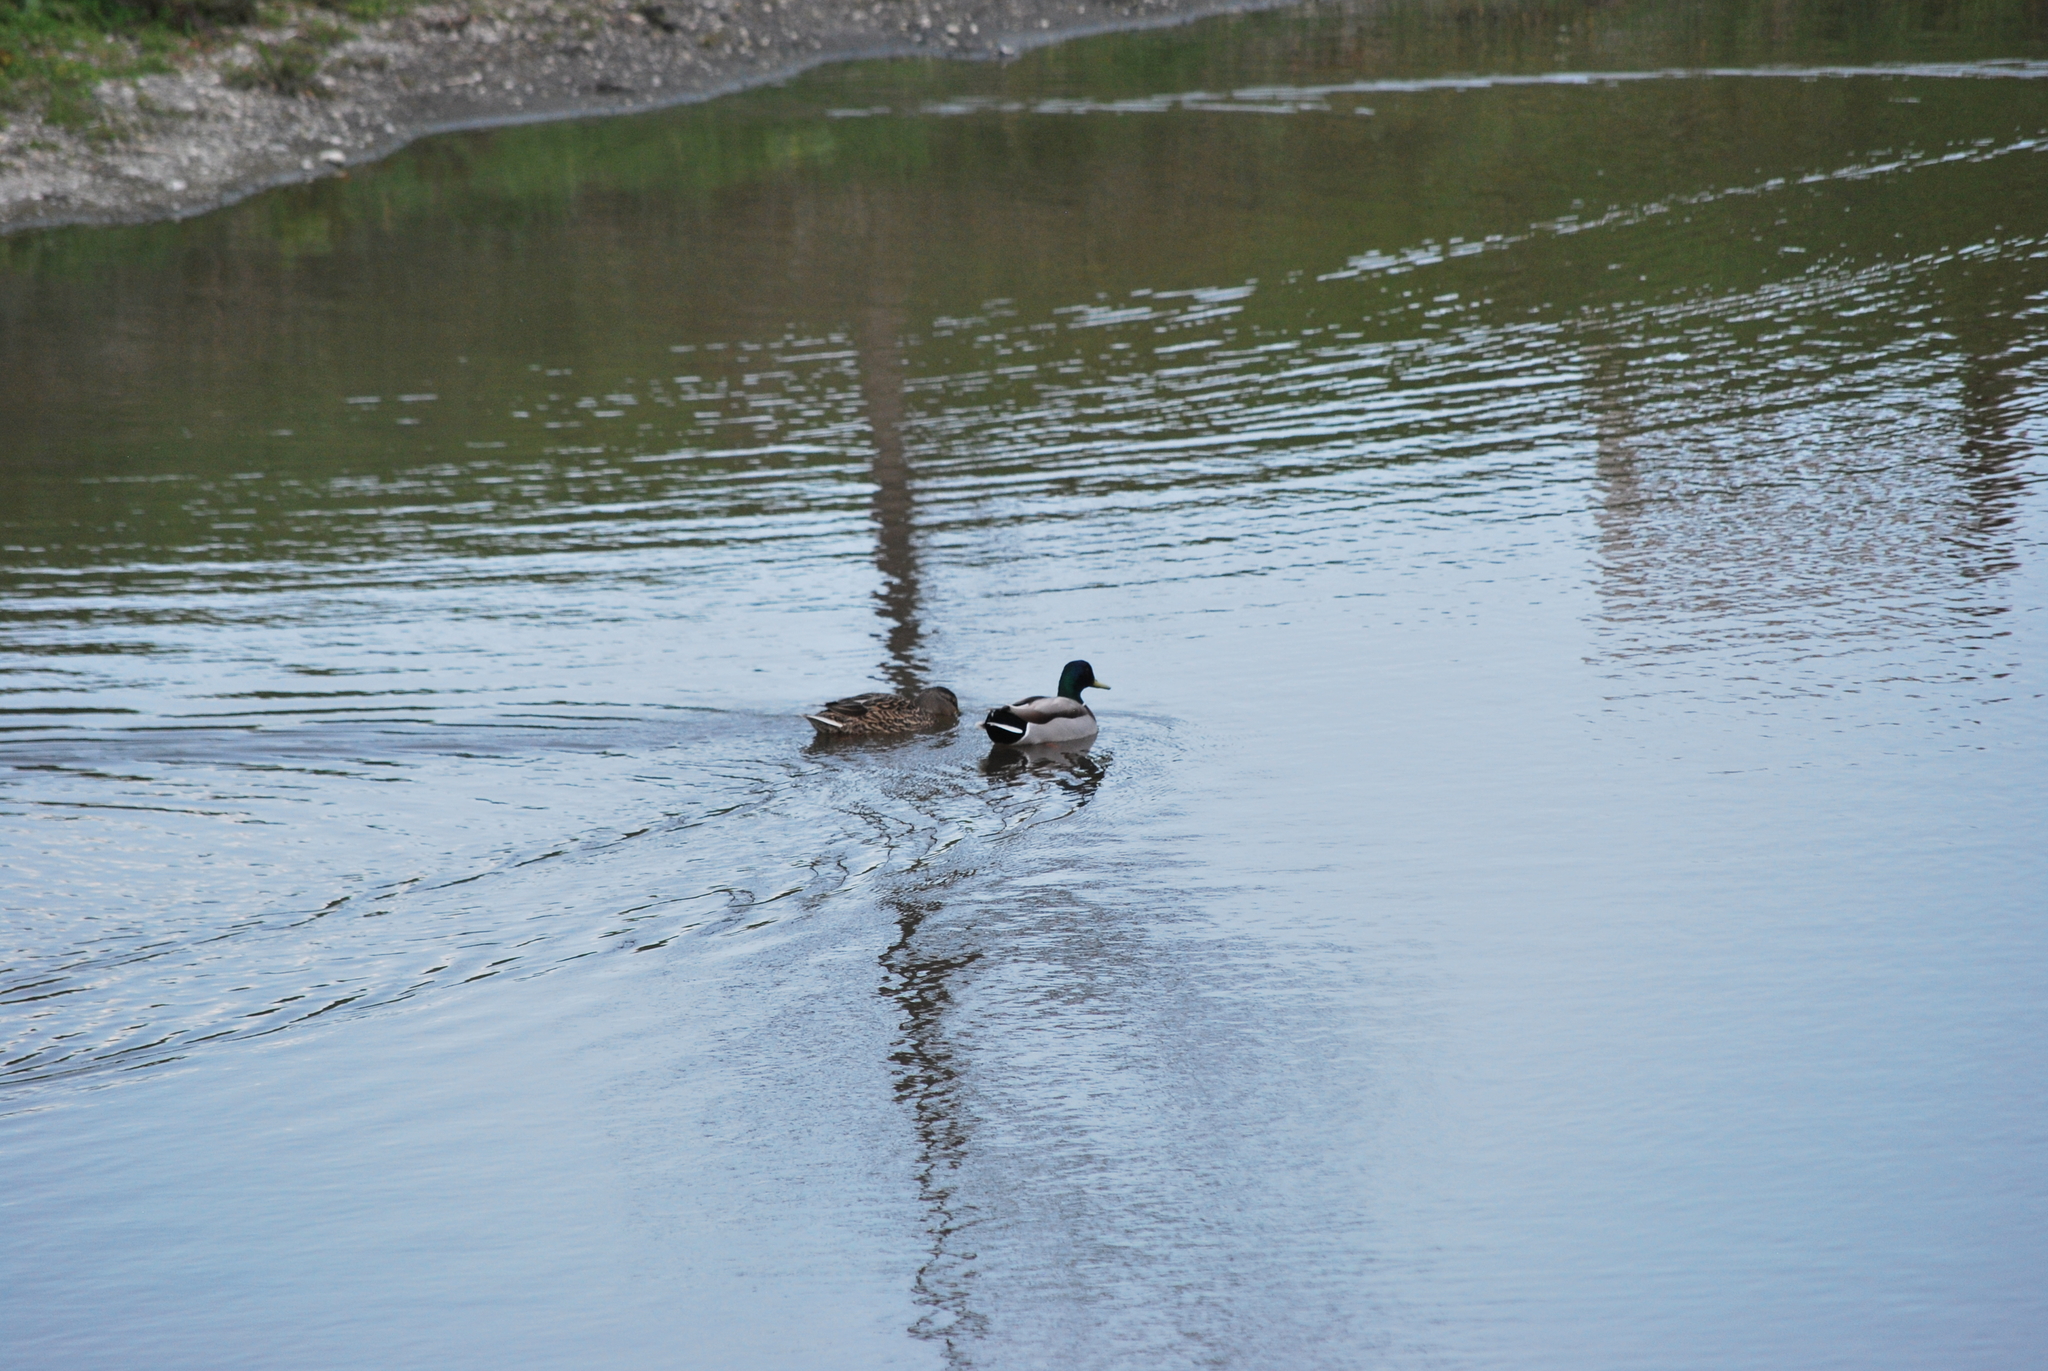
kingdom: Animalia
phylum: Chordata
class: Aves
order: Anseriformes
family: Anatidae
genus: Anas
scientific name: Anas platyrhynchos
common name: Mallard
